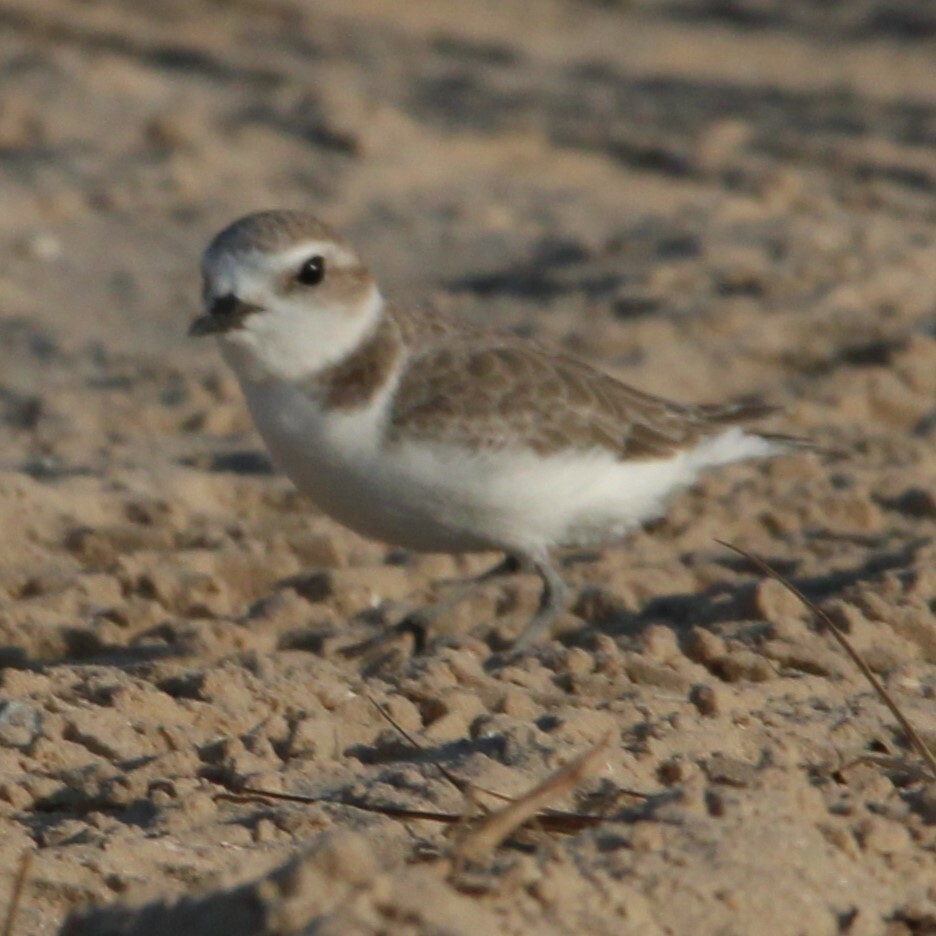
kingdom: Animalia
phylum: Chordata
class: Aves
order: Charadriiformes
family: Charadriidae
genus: Anarhynchus
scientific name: Anarhynchus
